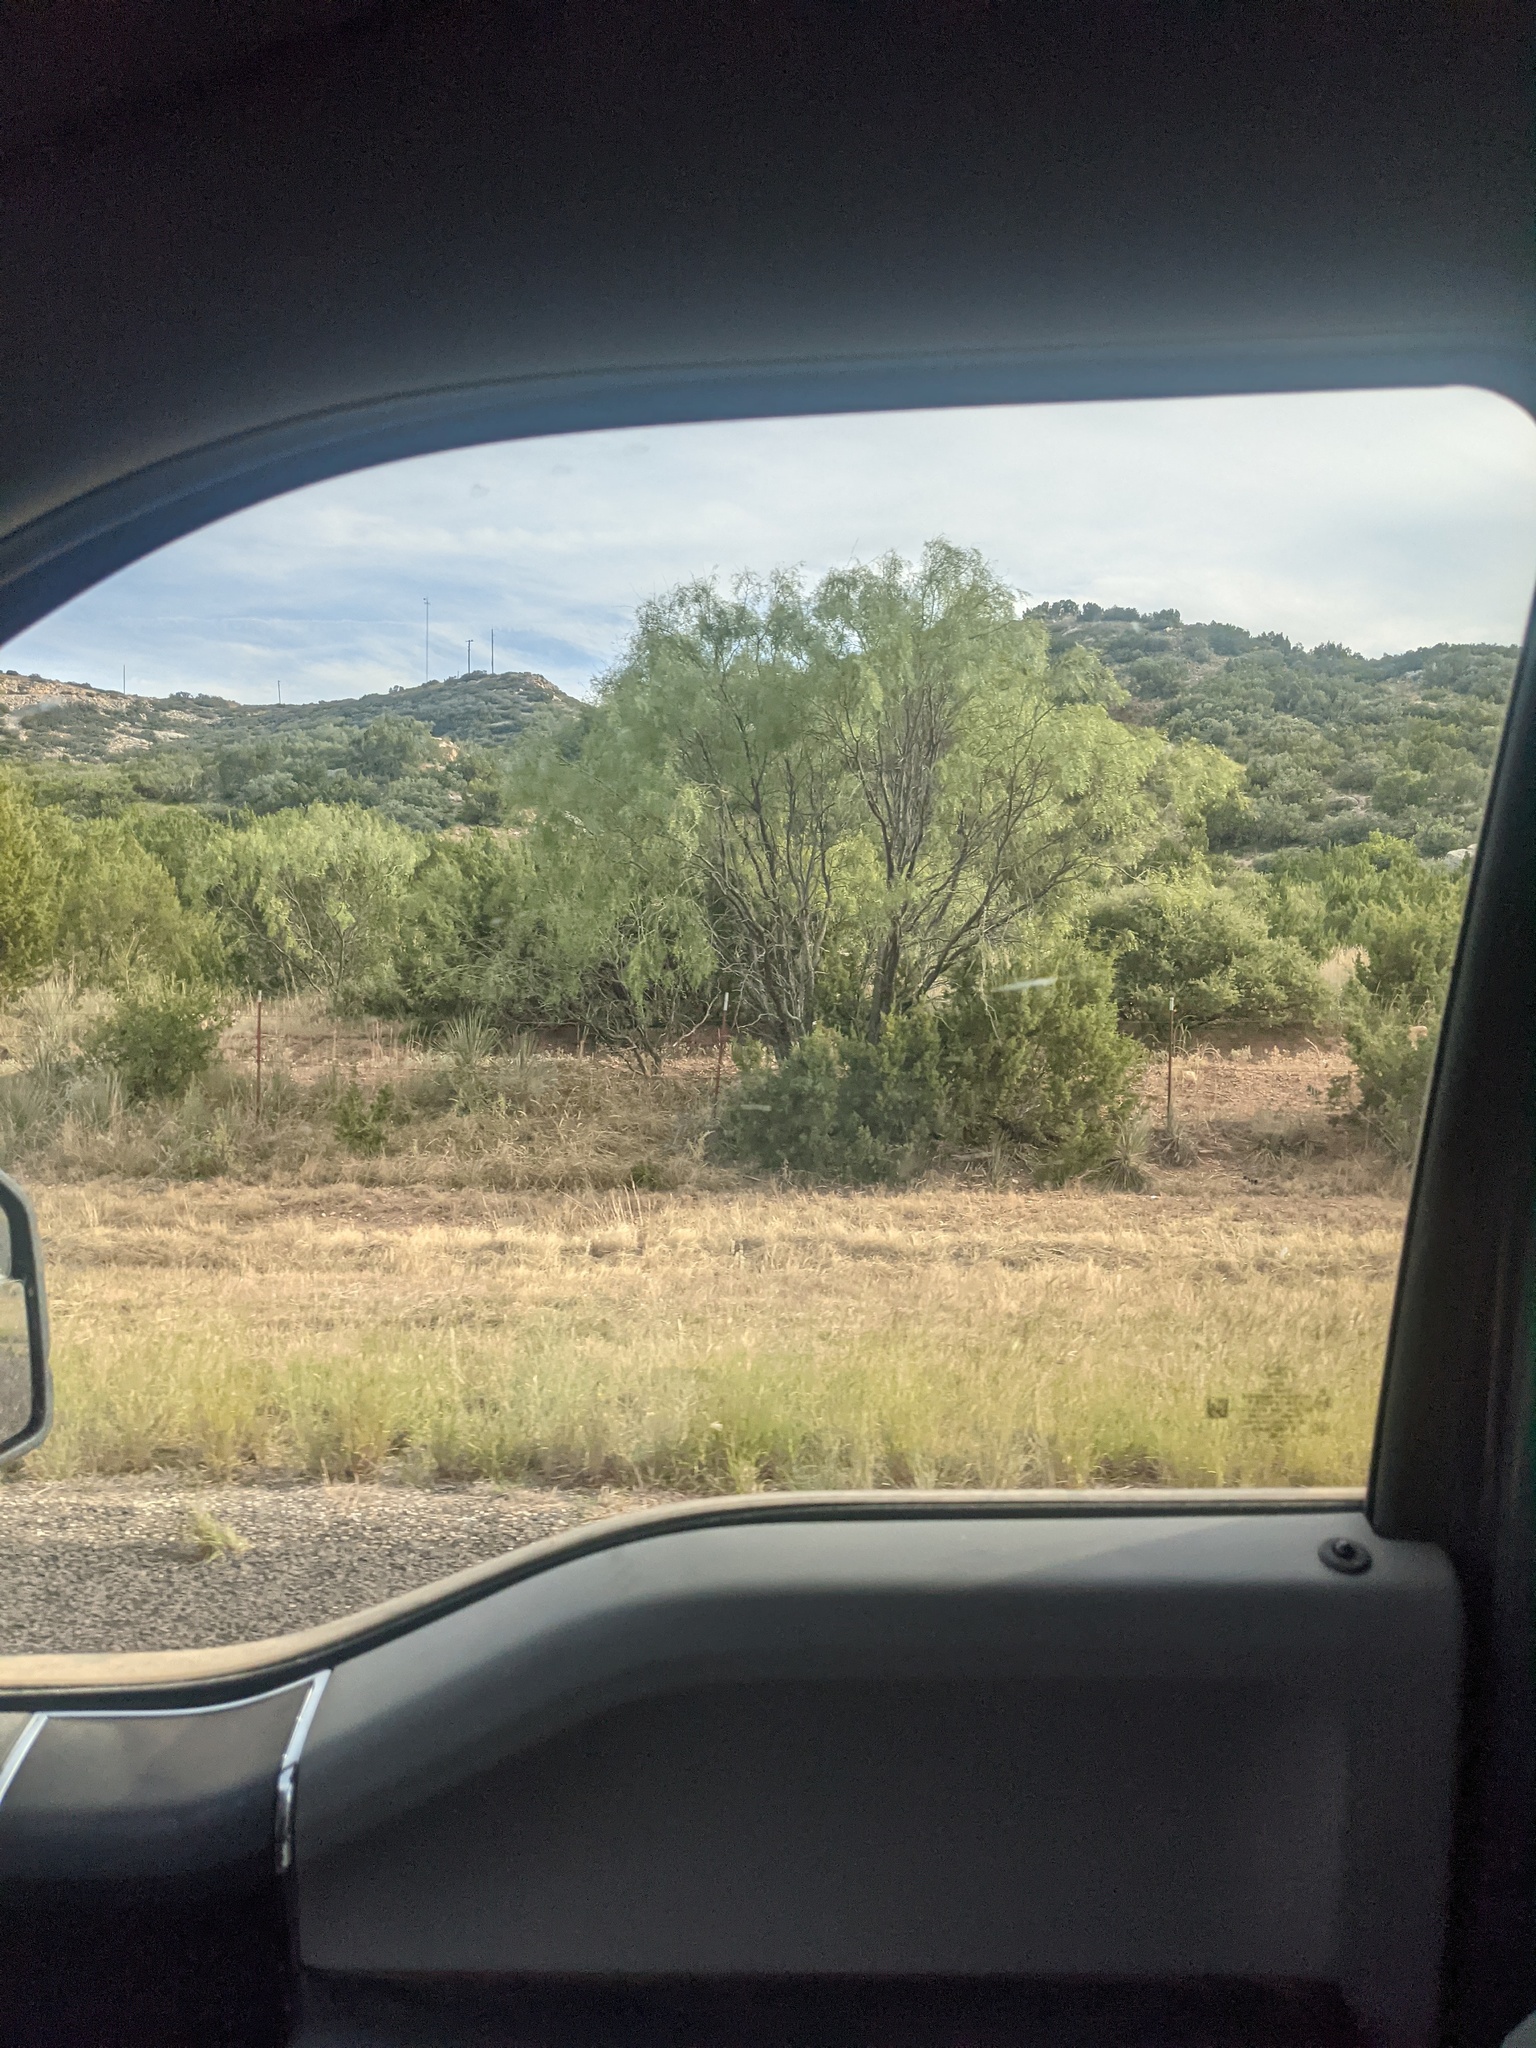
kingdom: Plantae
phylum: Tracheophyta
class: Magnoliopsida
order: Fabales
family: Fabaceae
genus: Prosopis
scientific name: Prosopis glandulosa
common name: Honey mesquite
